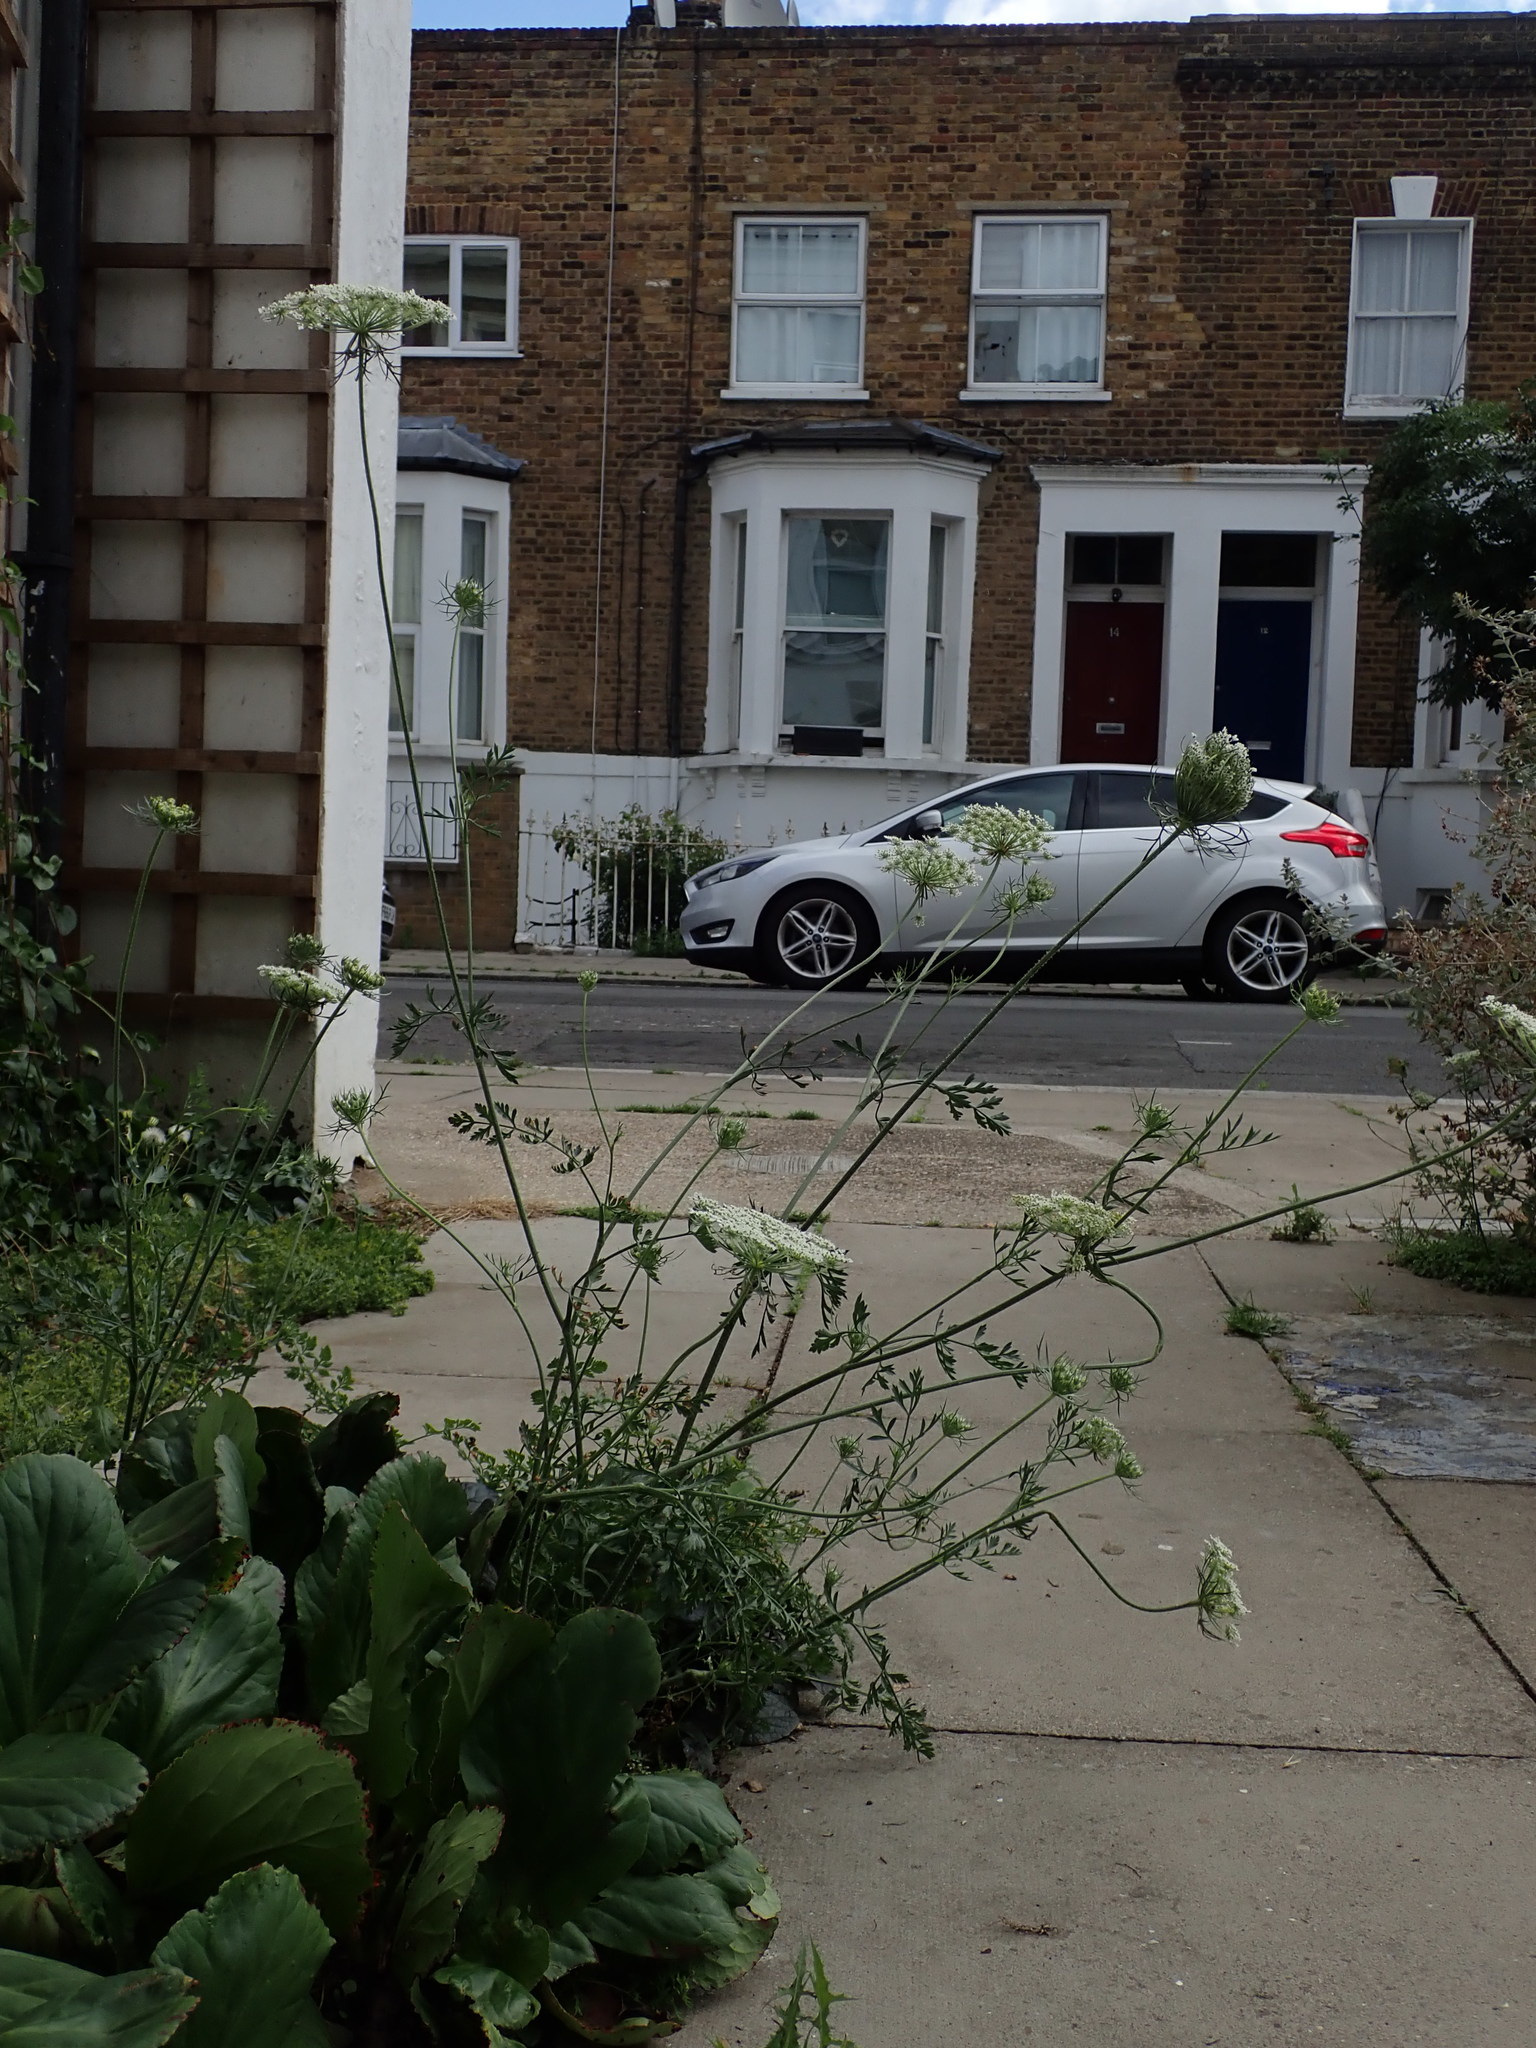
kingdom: Plantae
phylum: Tracheophyta
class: Magnoliopsida
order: Apiales
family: Apiaceae
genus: Daucus
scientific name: Daucus carota
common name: Wild carrot
